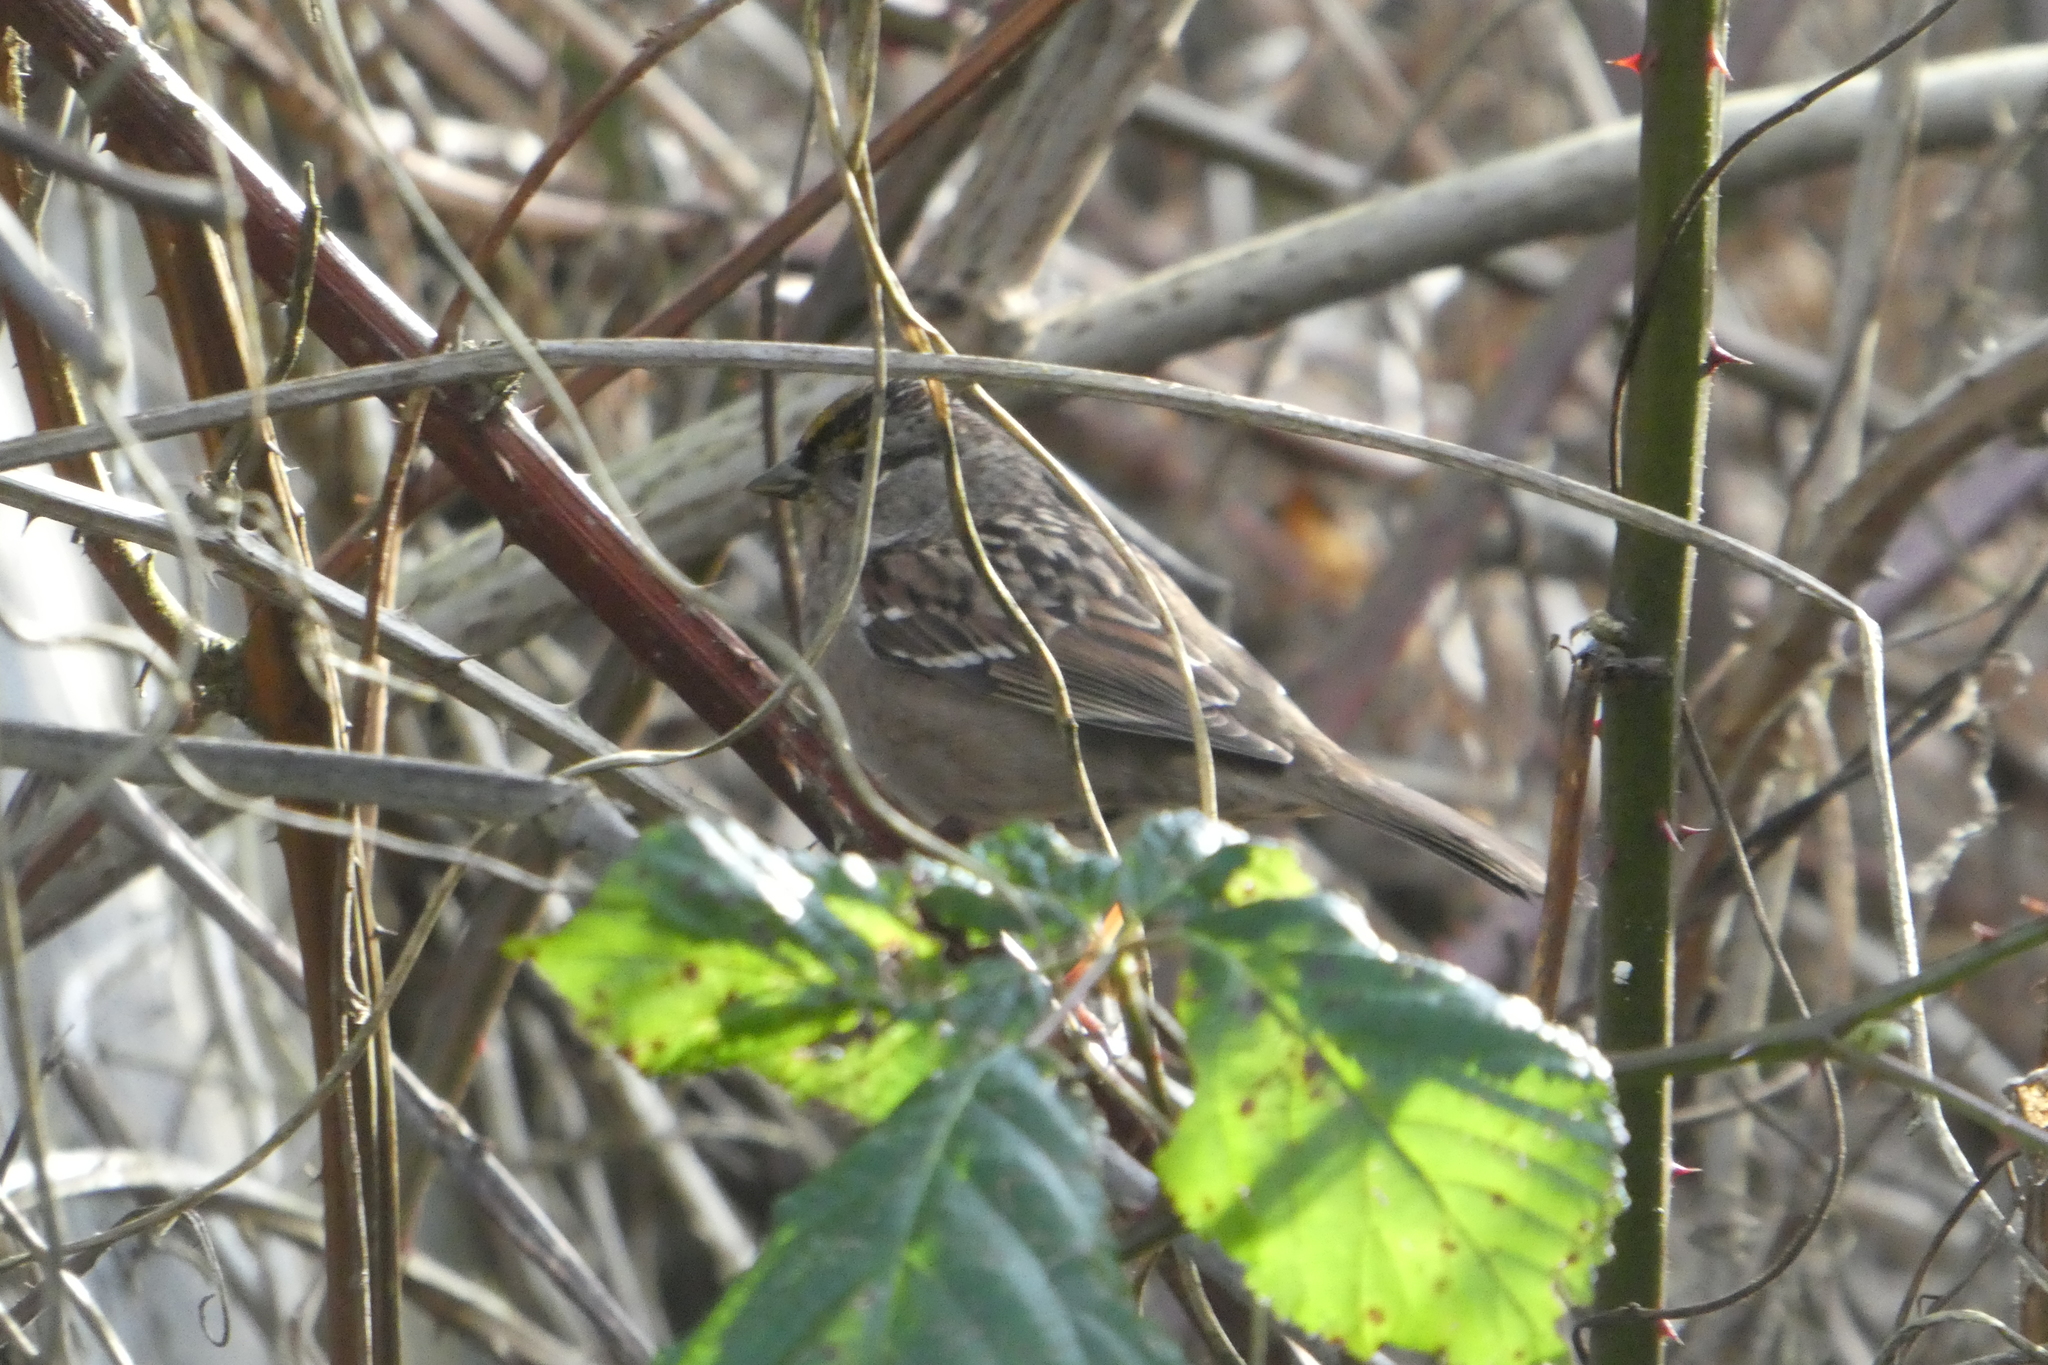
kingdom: Animalia
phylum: Chordata
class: Aves
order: Passeriformes
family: Passerellidae
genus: Zonotrichia
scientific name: Zonotrichia atricapilla
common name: Golden-crowned sparrow
